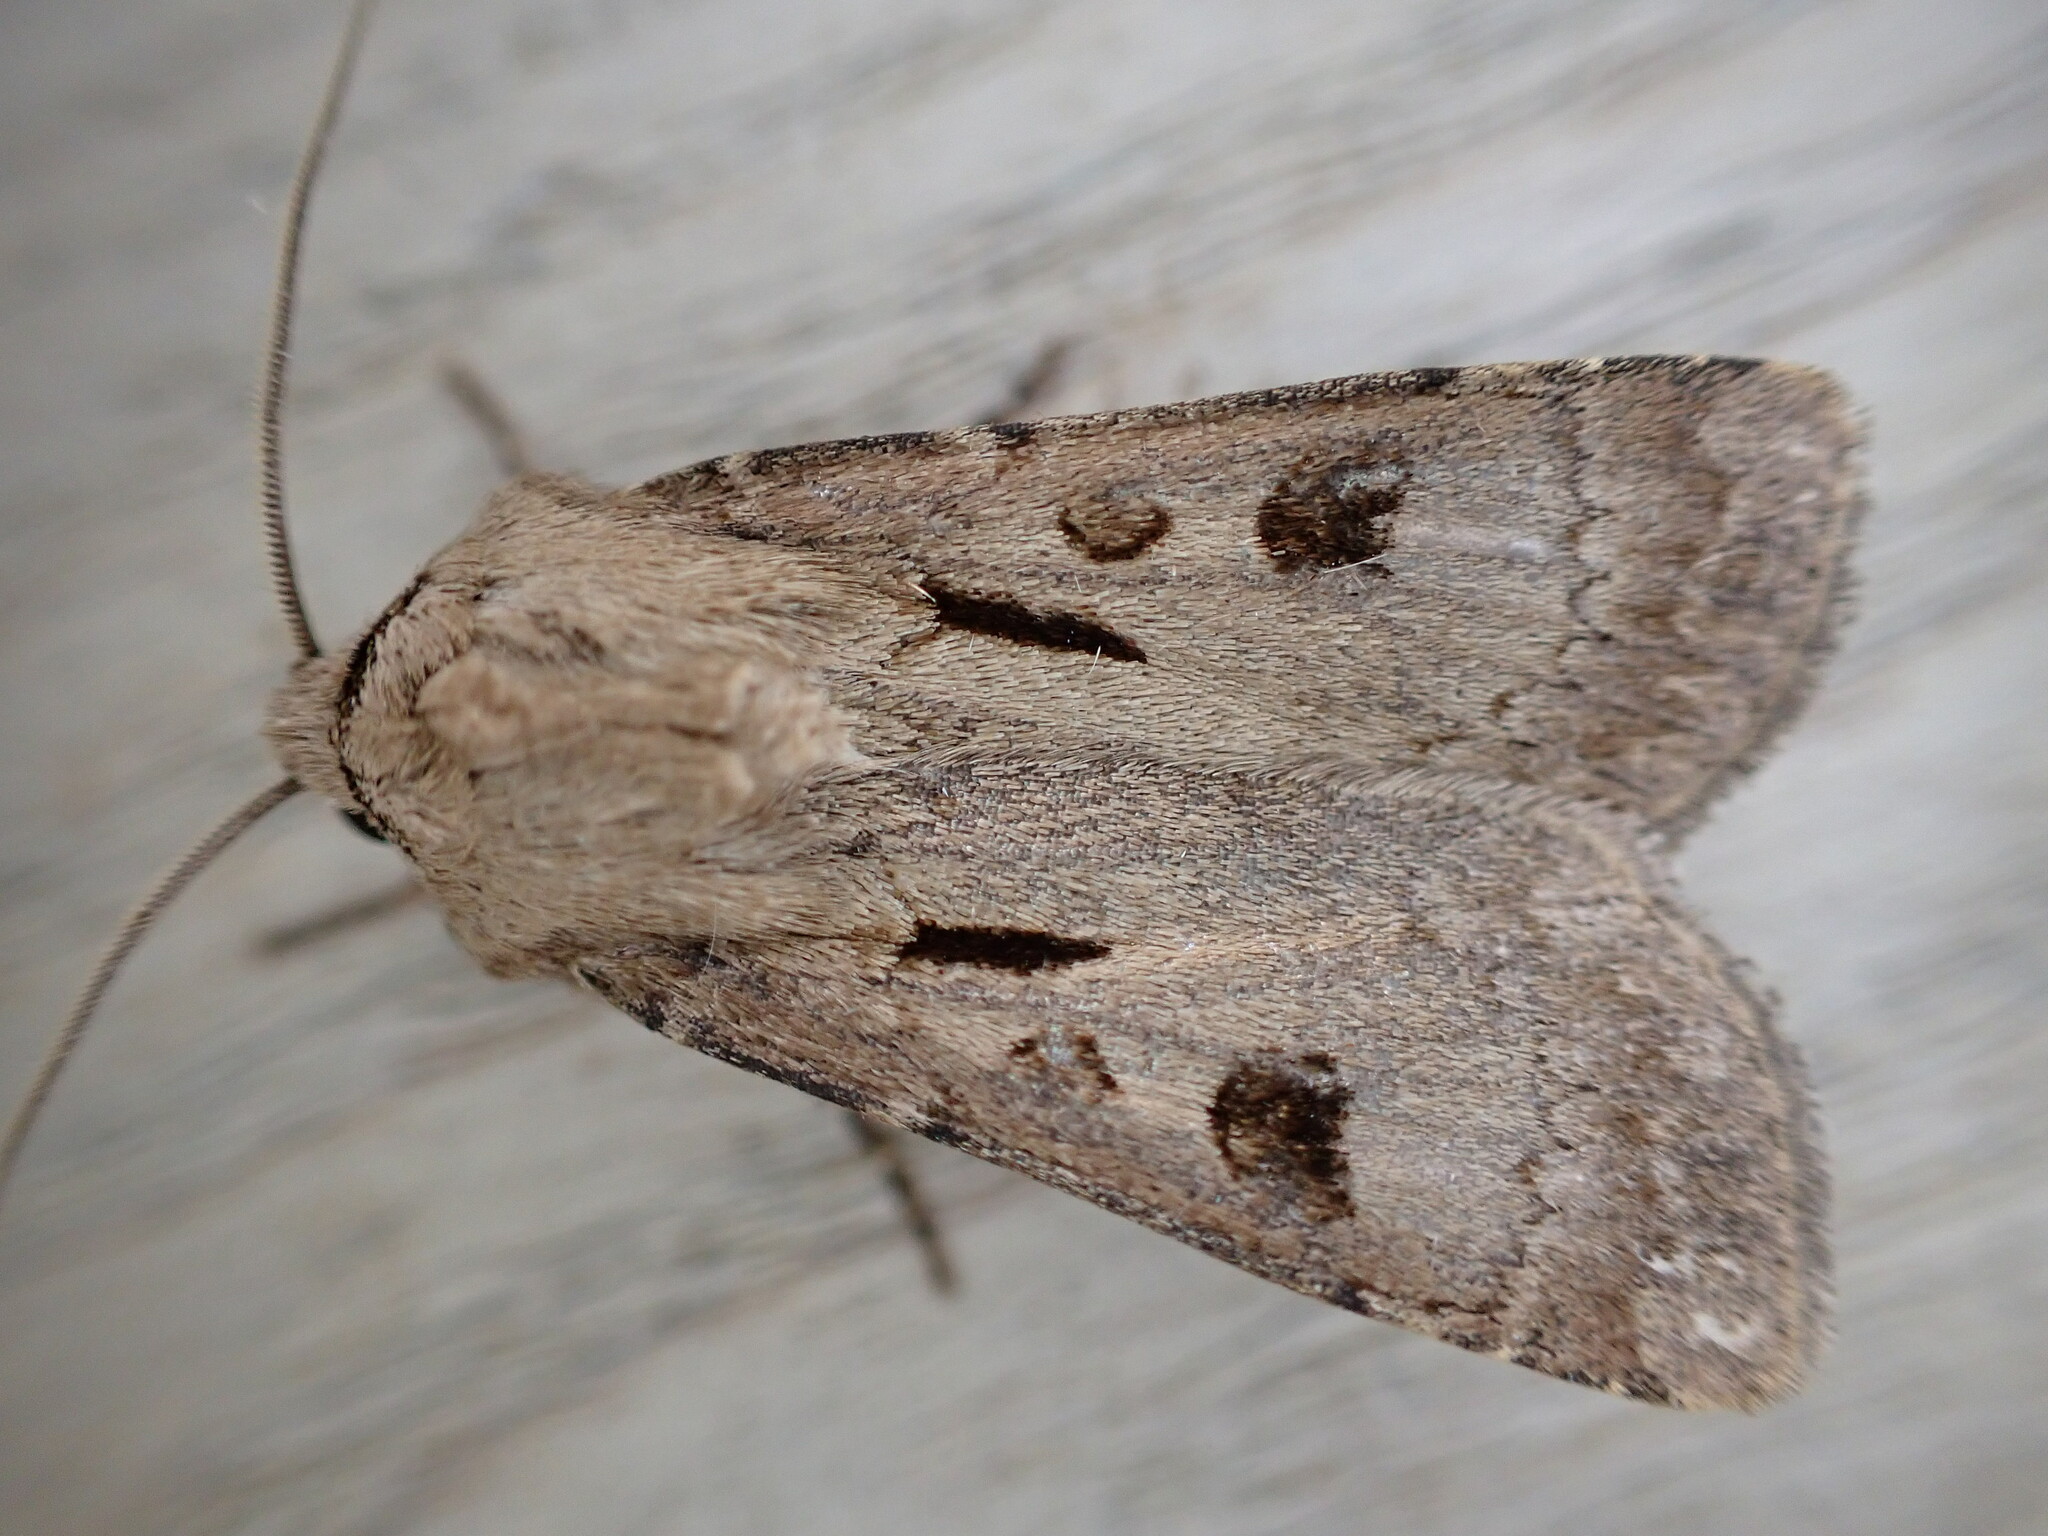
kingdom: Animalia
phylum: Arthropoda
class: Insecta
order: Lepidoptera
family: Noctuidae
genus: Agrotis
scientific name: Agrotis exclamationis
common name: Heart and dart
